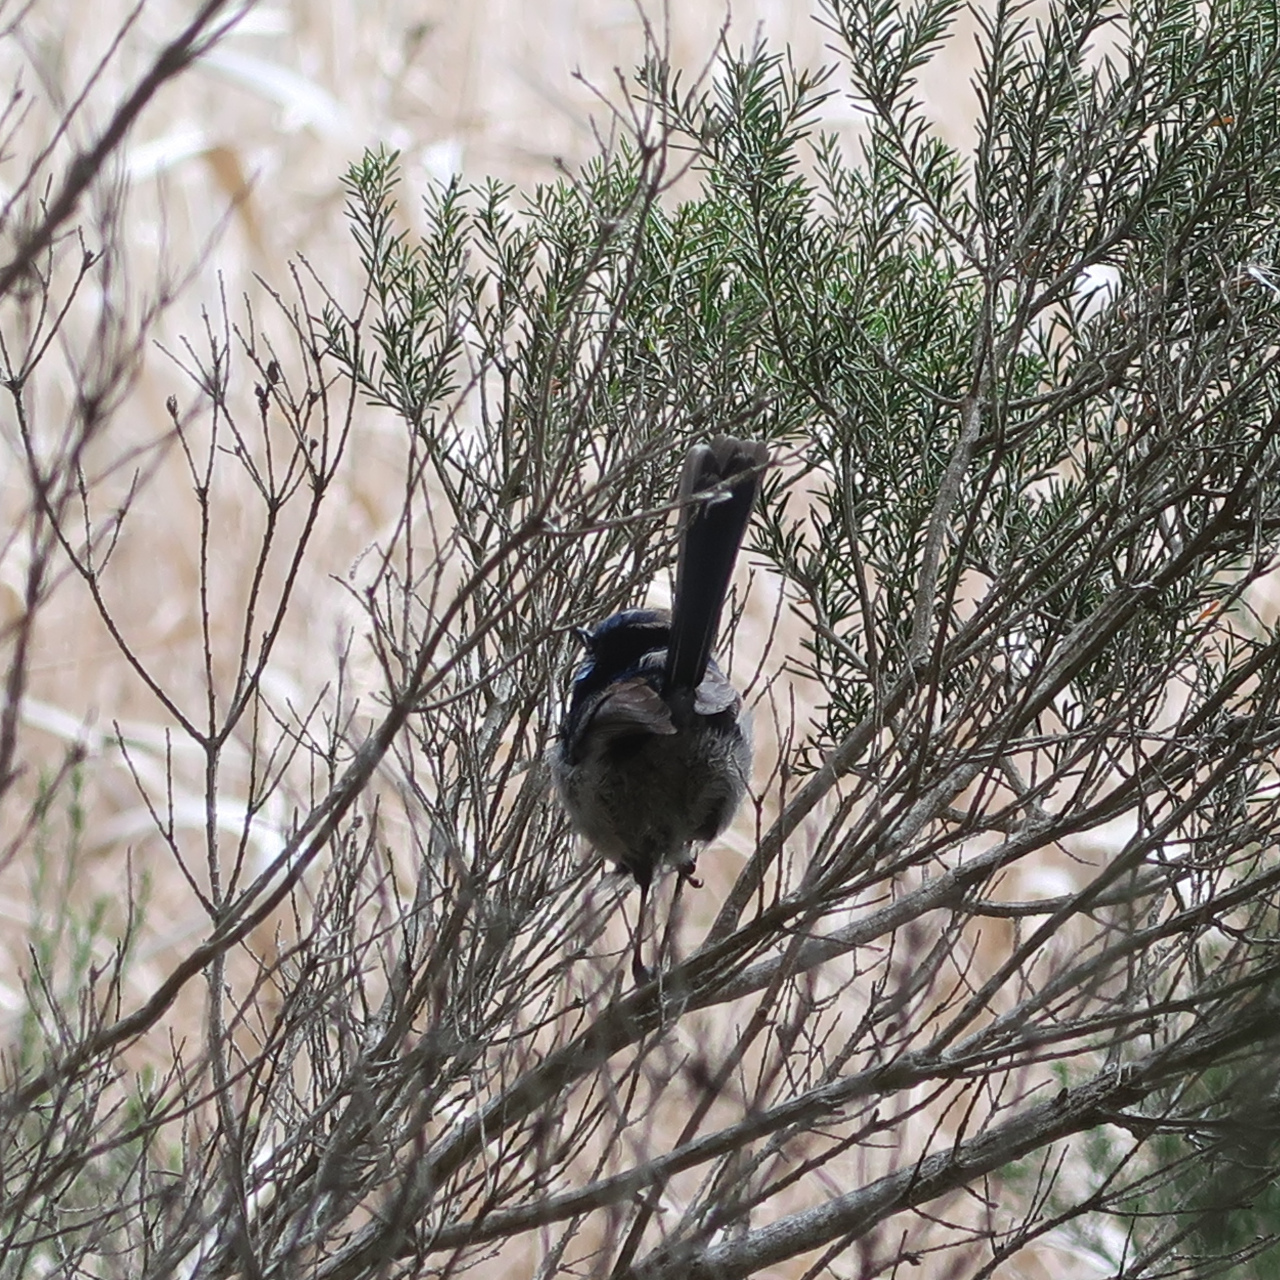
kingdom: Animalia
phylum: Chordata
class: Aves
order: Passeriformes
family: Maluridae
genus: Malurus
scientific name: Malurus cyaneus
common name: Superb fairywren
